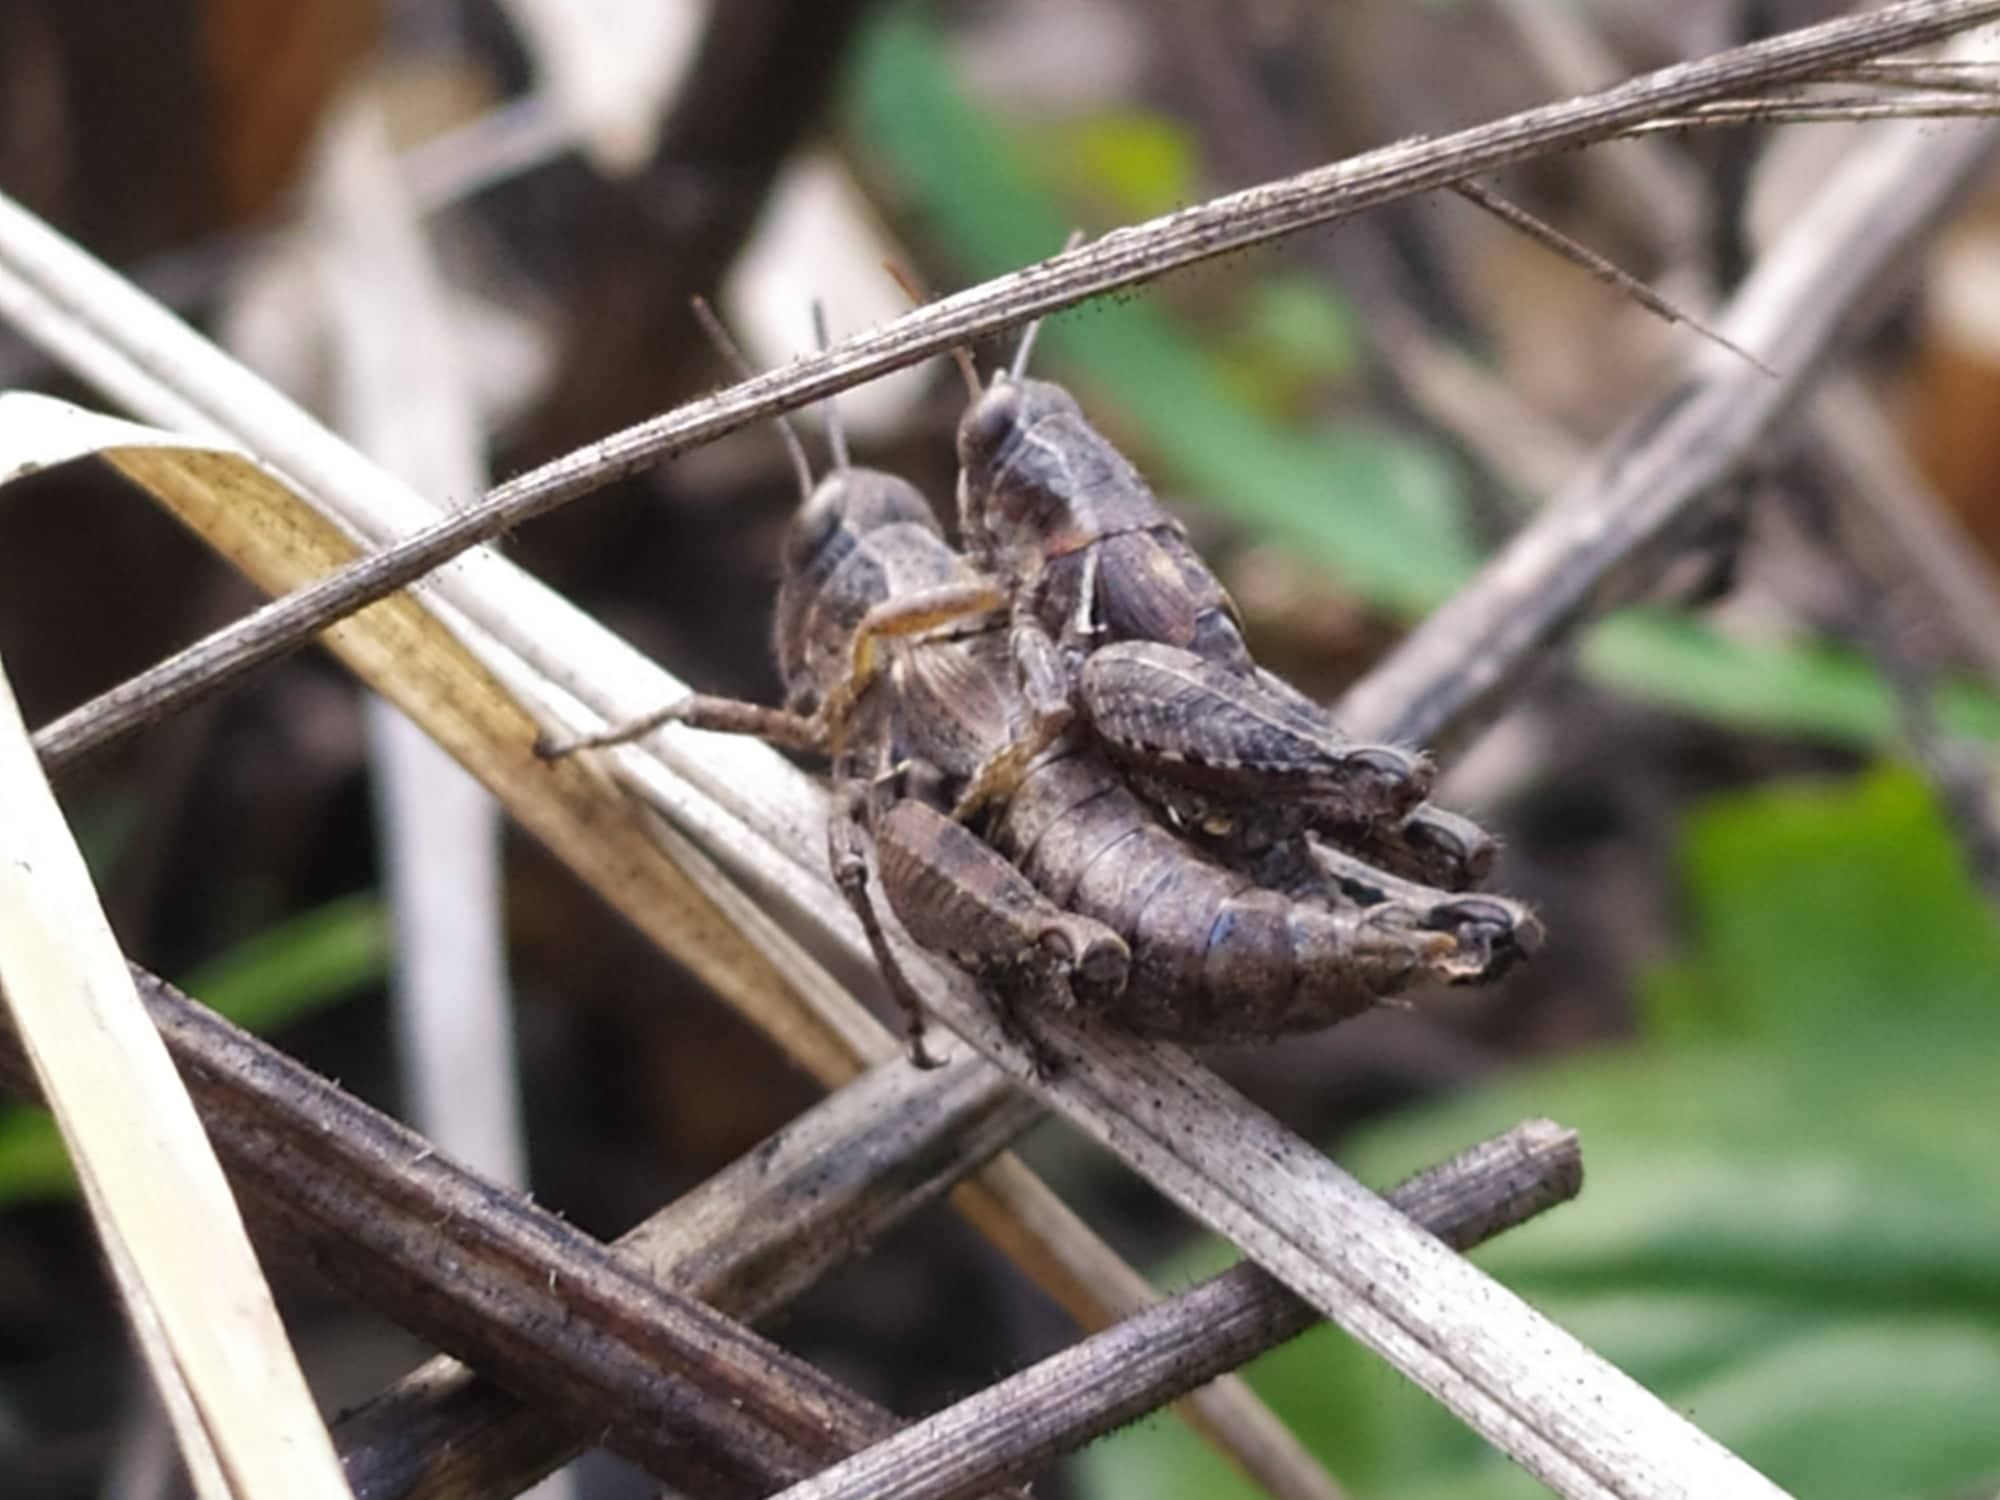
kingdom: Animalia
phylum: Arthropoda
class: Insecta
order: Orthoptera
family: Acrididae
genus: Pezotettix
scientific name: Pezotettix giornae
